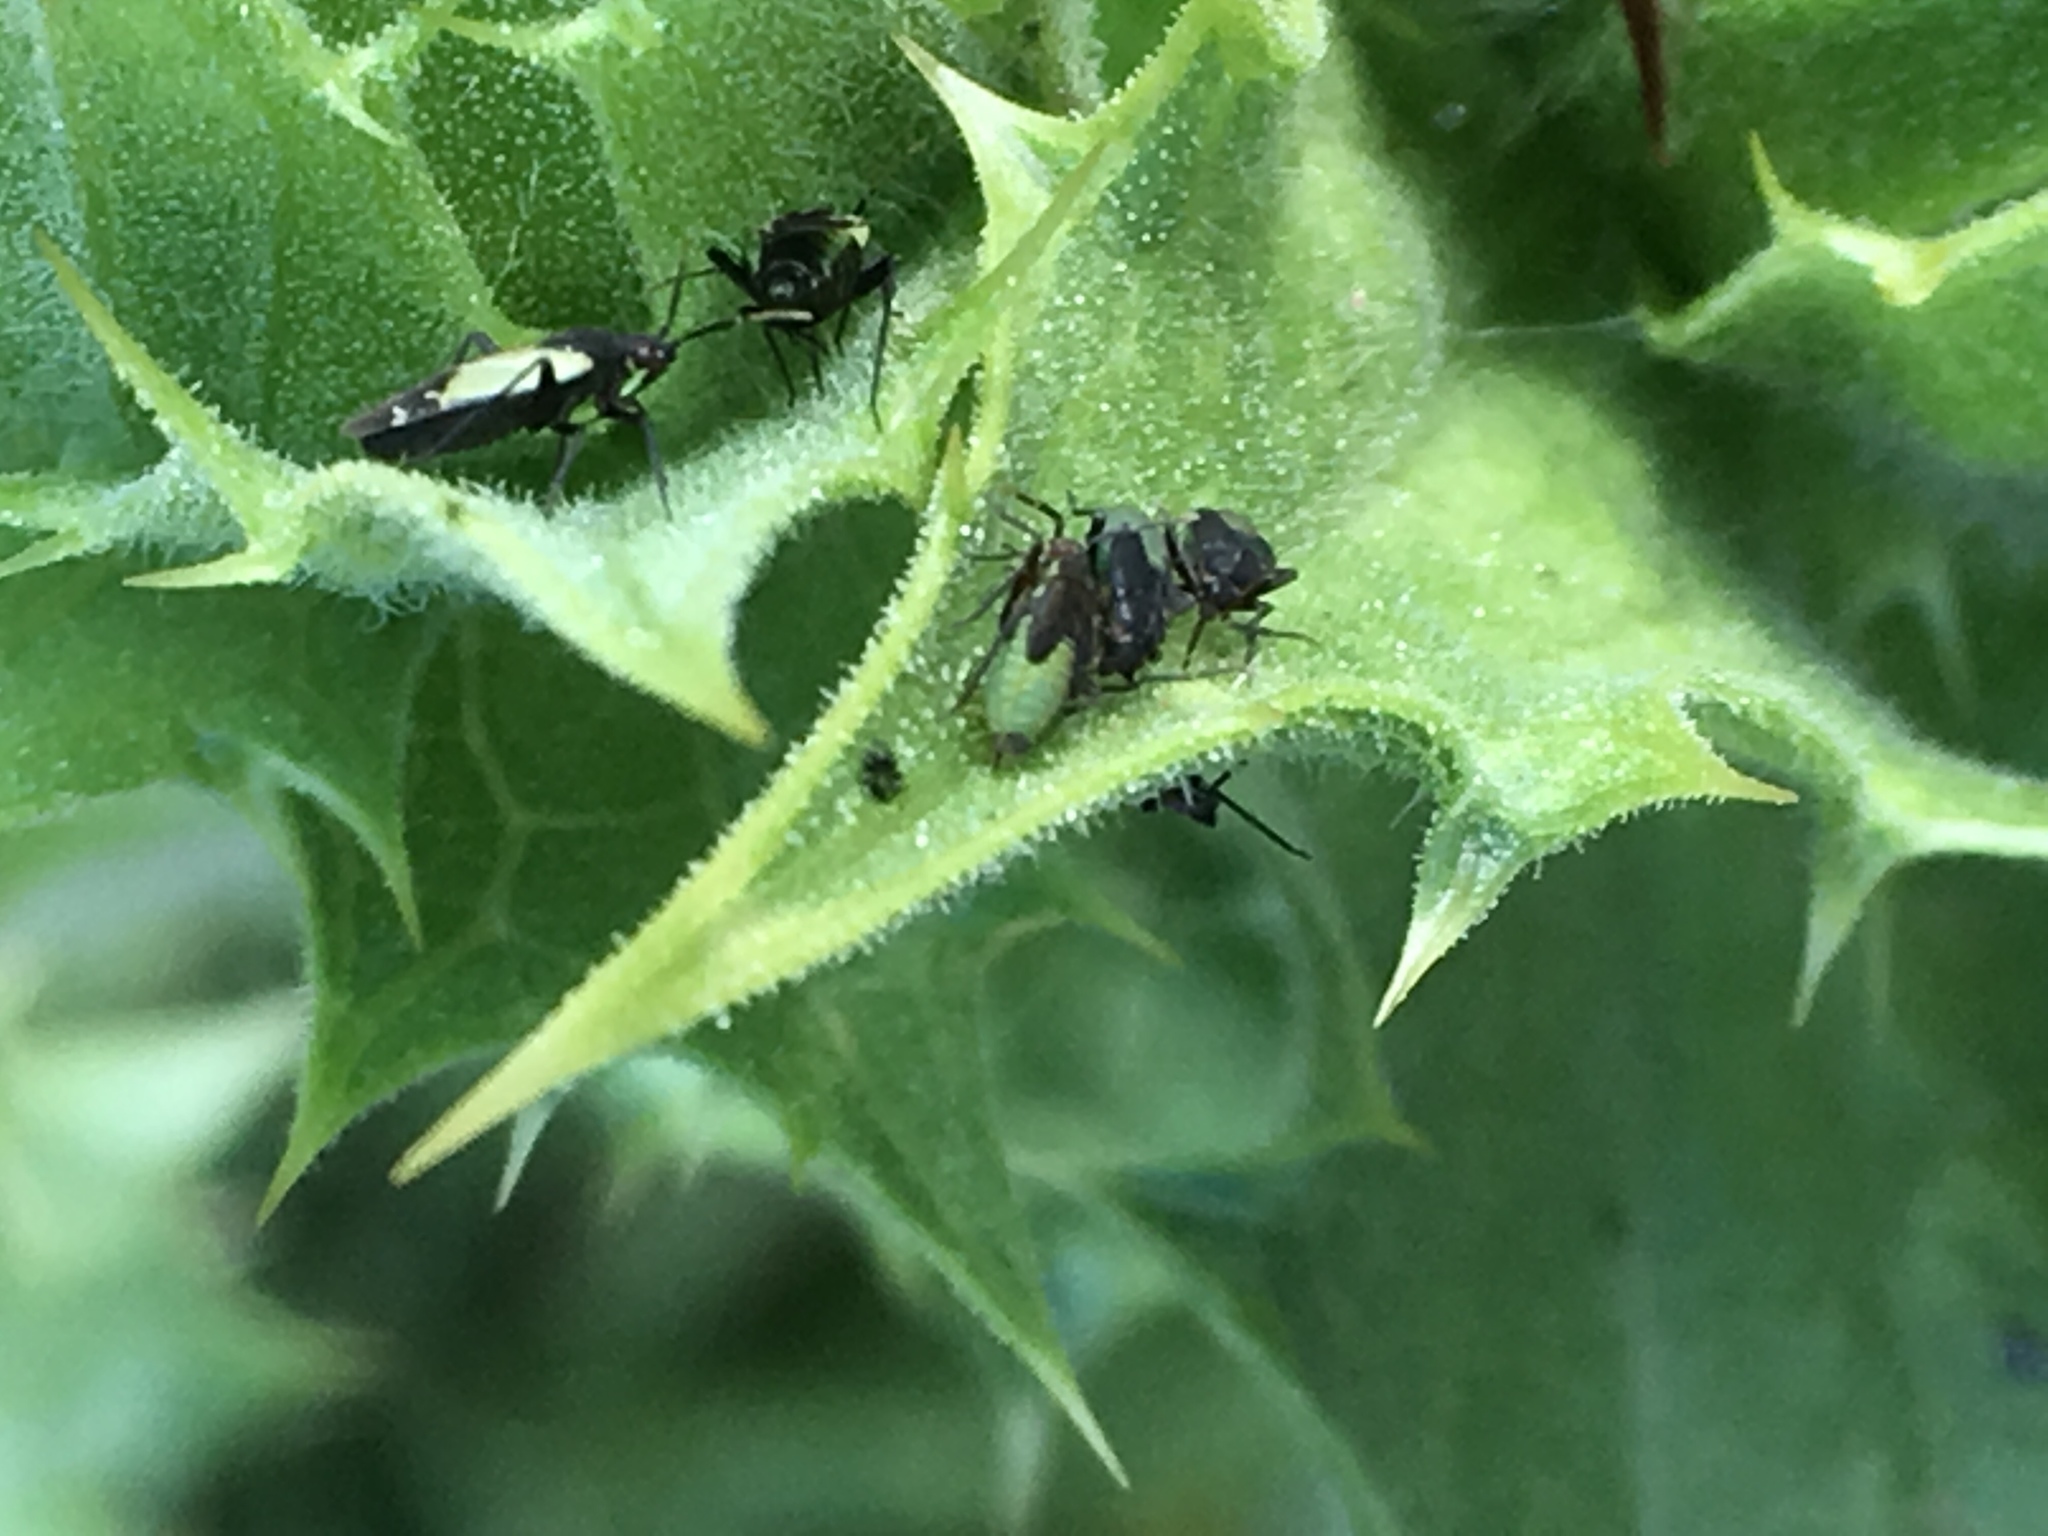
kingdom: Animalia
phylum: Arthropoda
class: Insecta
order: Hemiptera
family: Miridae
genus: Macrotylus
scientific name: Macrotylus bicolor
